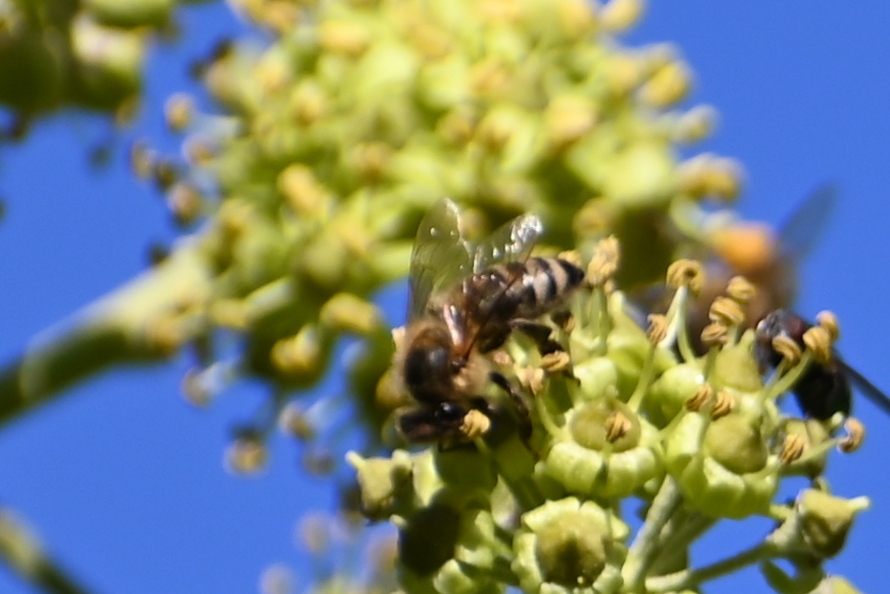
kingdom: Animalia
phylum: Arthropoda
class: Insecta
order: Hymenoptera
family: Apidae
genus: Apis
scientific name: Apis mellifera
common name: Honey bee
